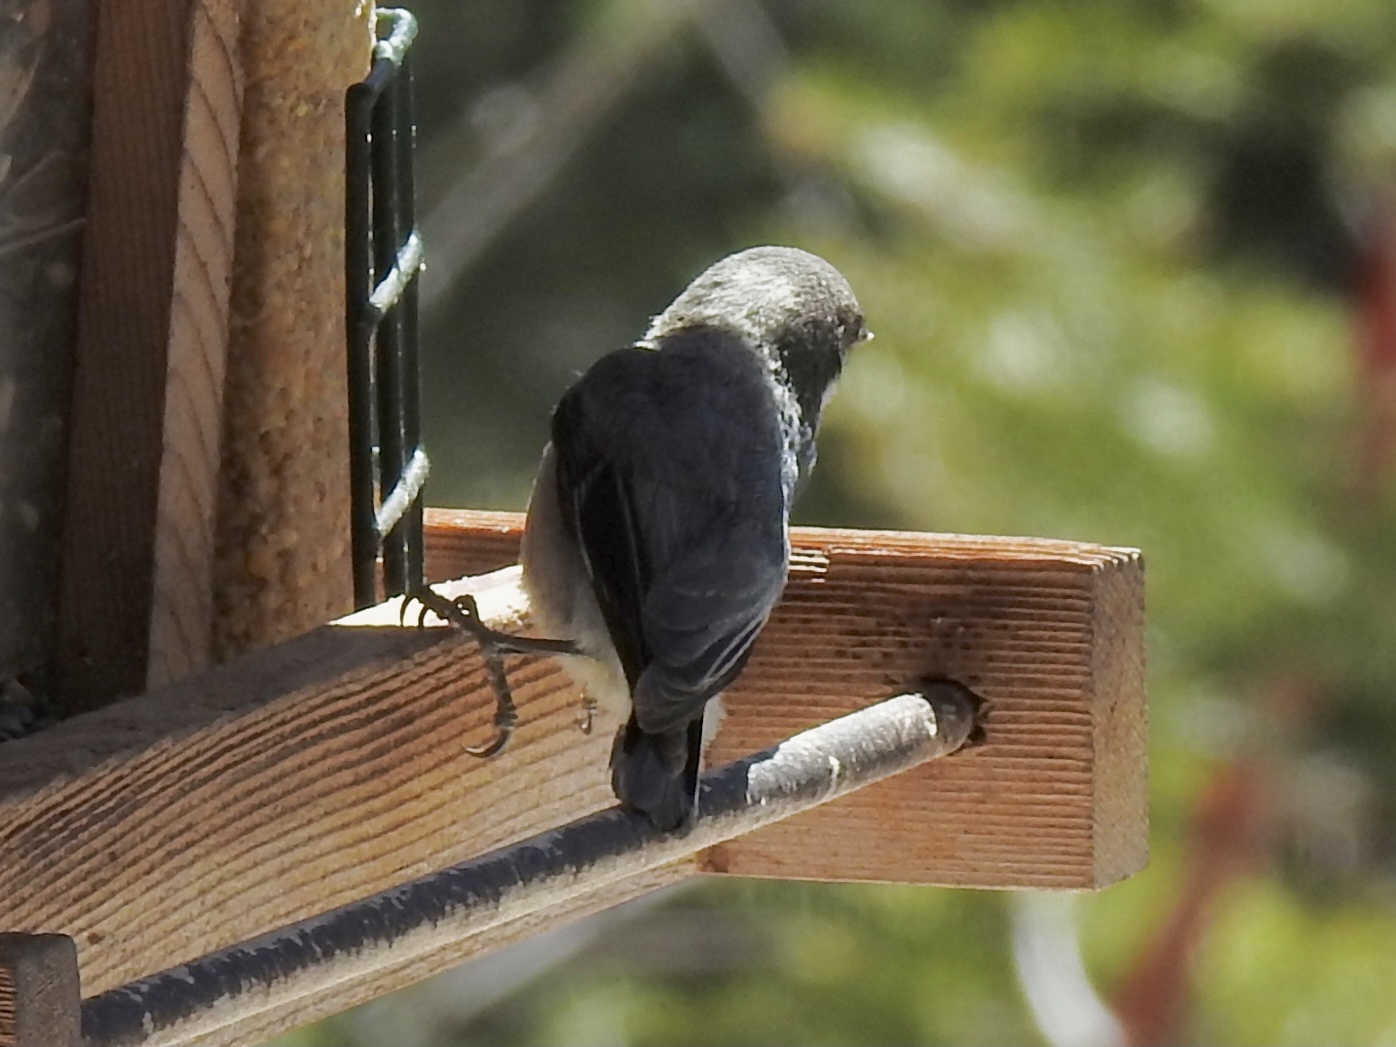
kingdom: Animalia
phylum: Chordata
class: Aves
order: Passeriformes
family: Sittidae
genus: Sitta
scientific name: Sitta pygmaea
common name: Pygmy nuthatch
